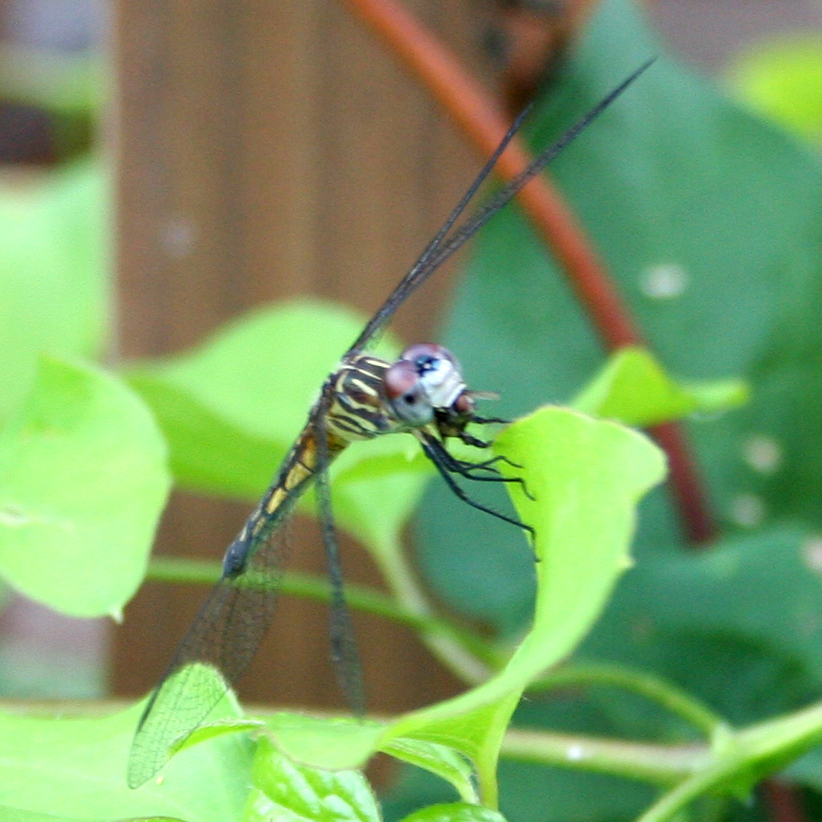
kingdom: Animalia
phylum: Arthropoda
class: Insecta
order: Odonata
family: Libellulidae
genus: Pachydiplax
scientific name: Pachydiplax longipennis
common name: Blue dasher
